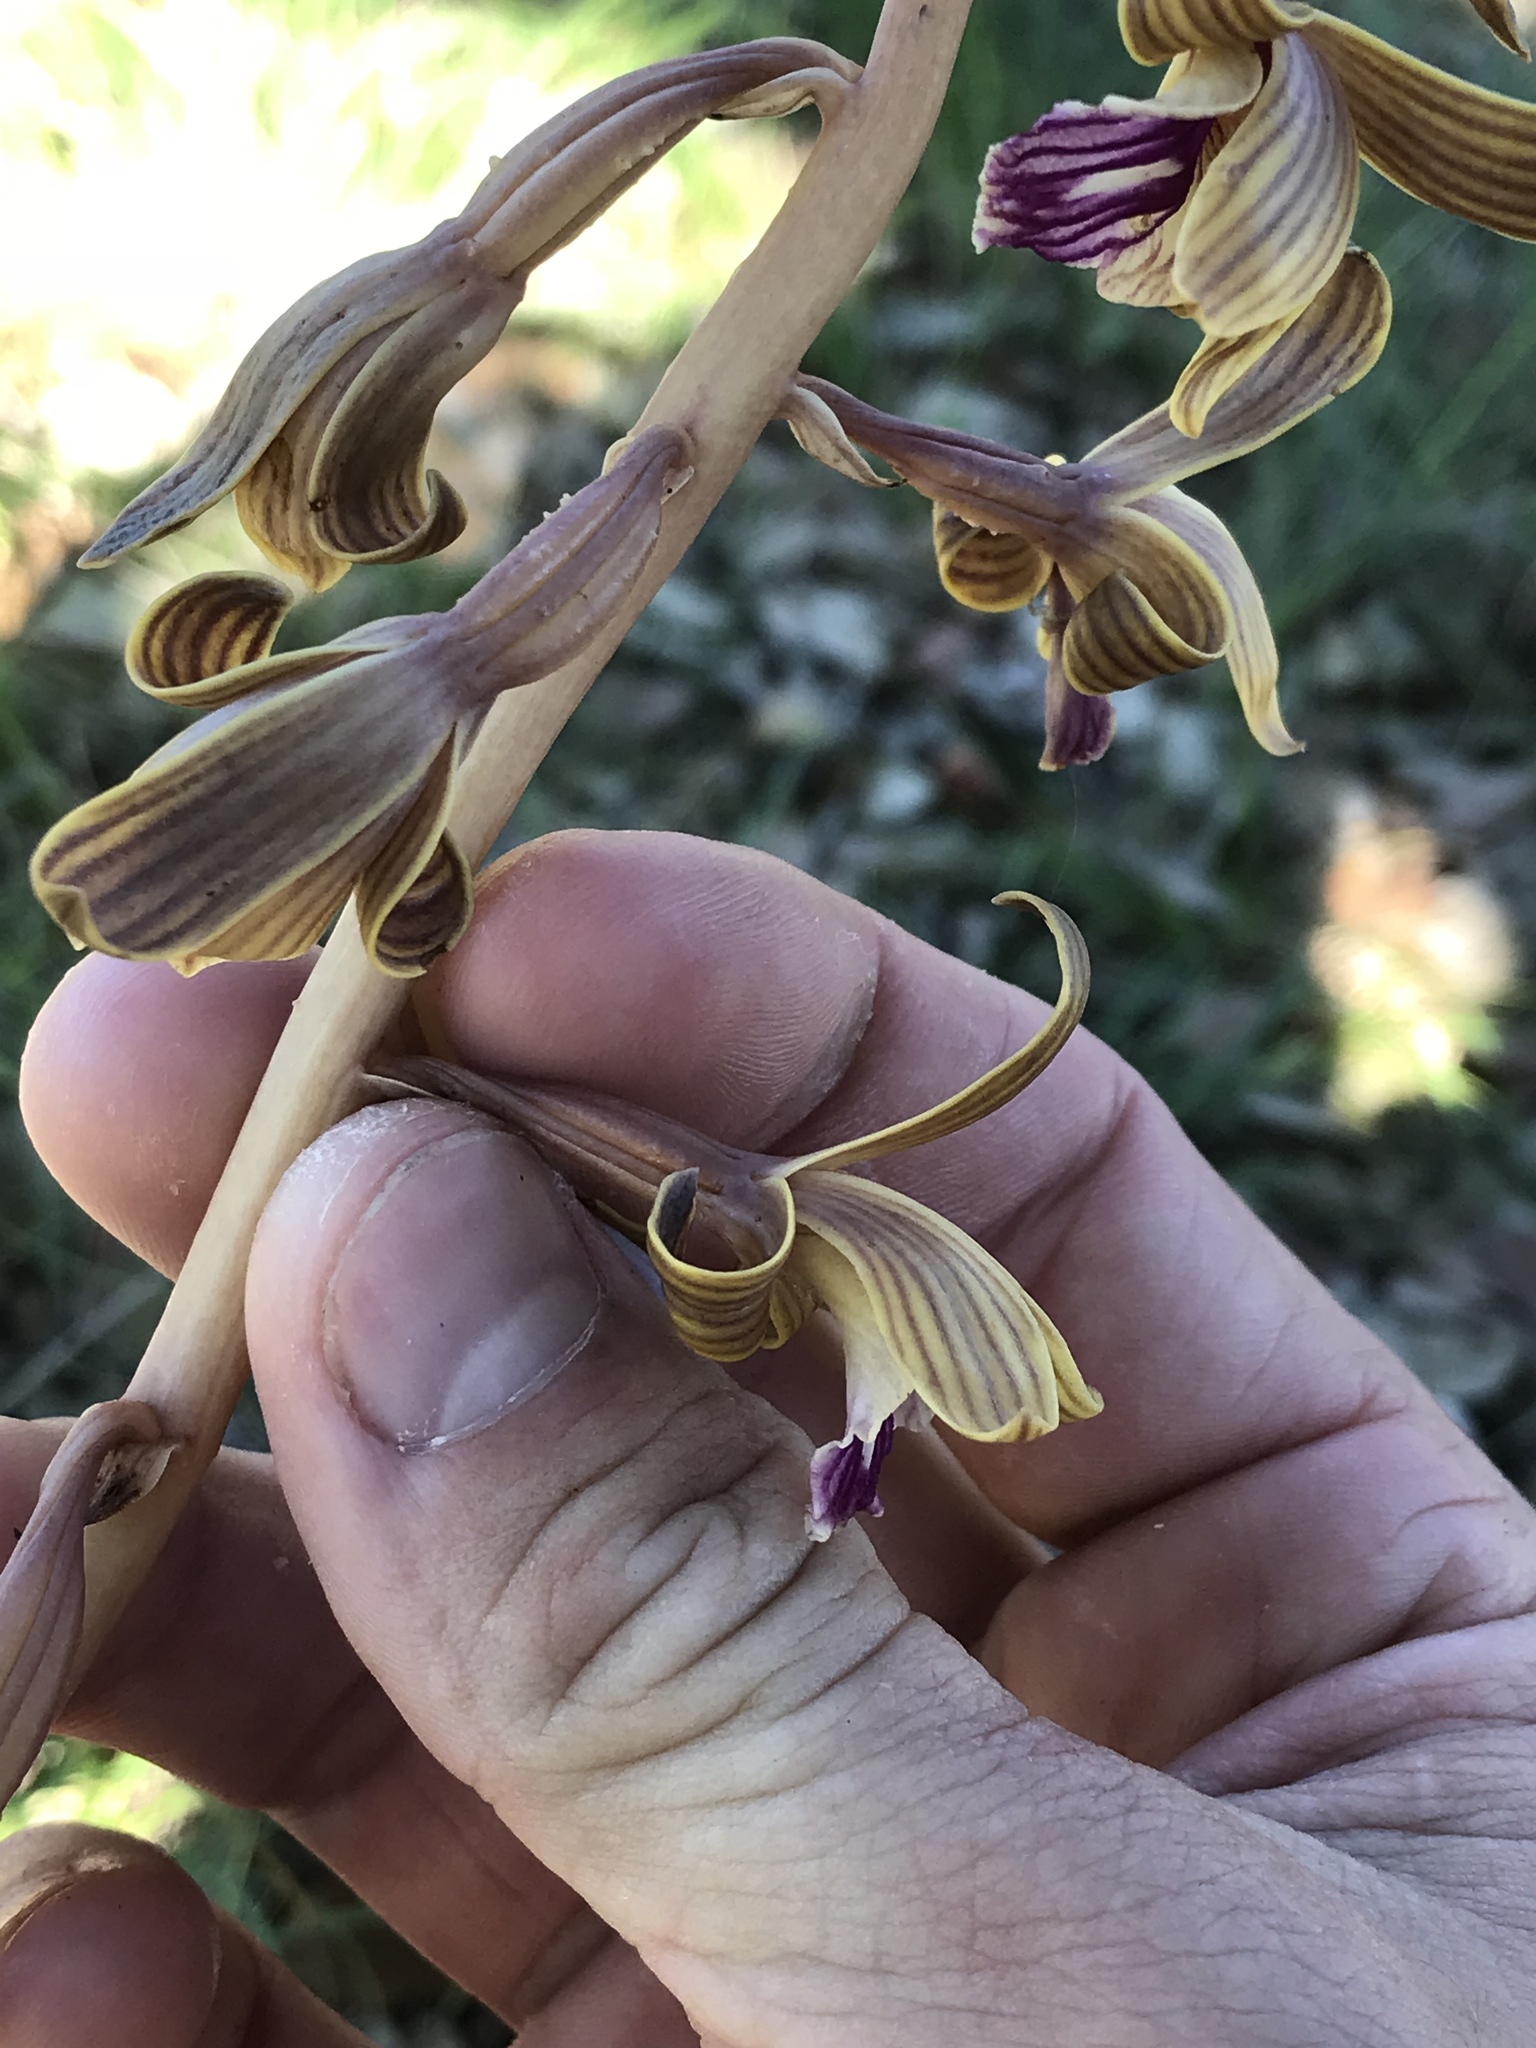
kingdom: Plantae
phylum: Tracheophyta
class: Liliopsida
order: Asparagales
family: Orchidaceae
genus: Bletia
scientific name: Bletia spicata
